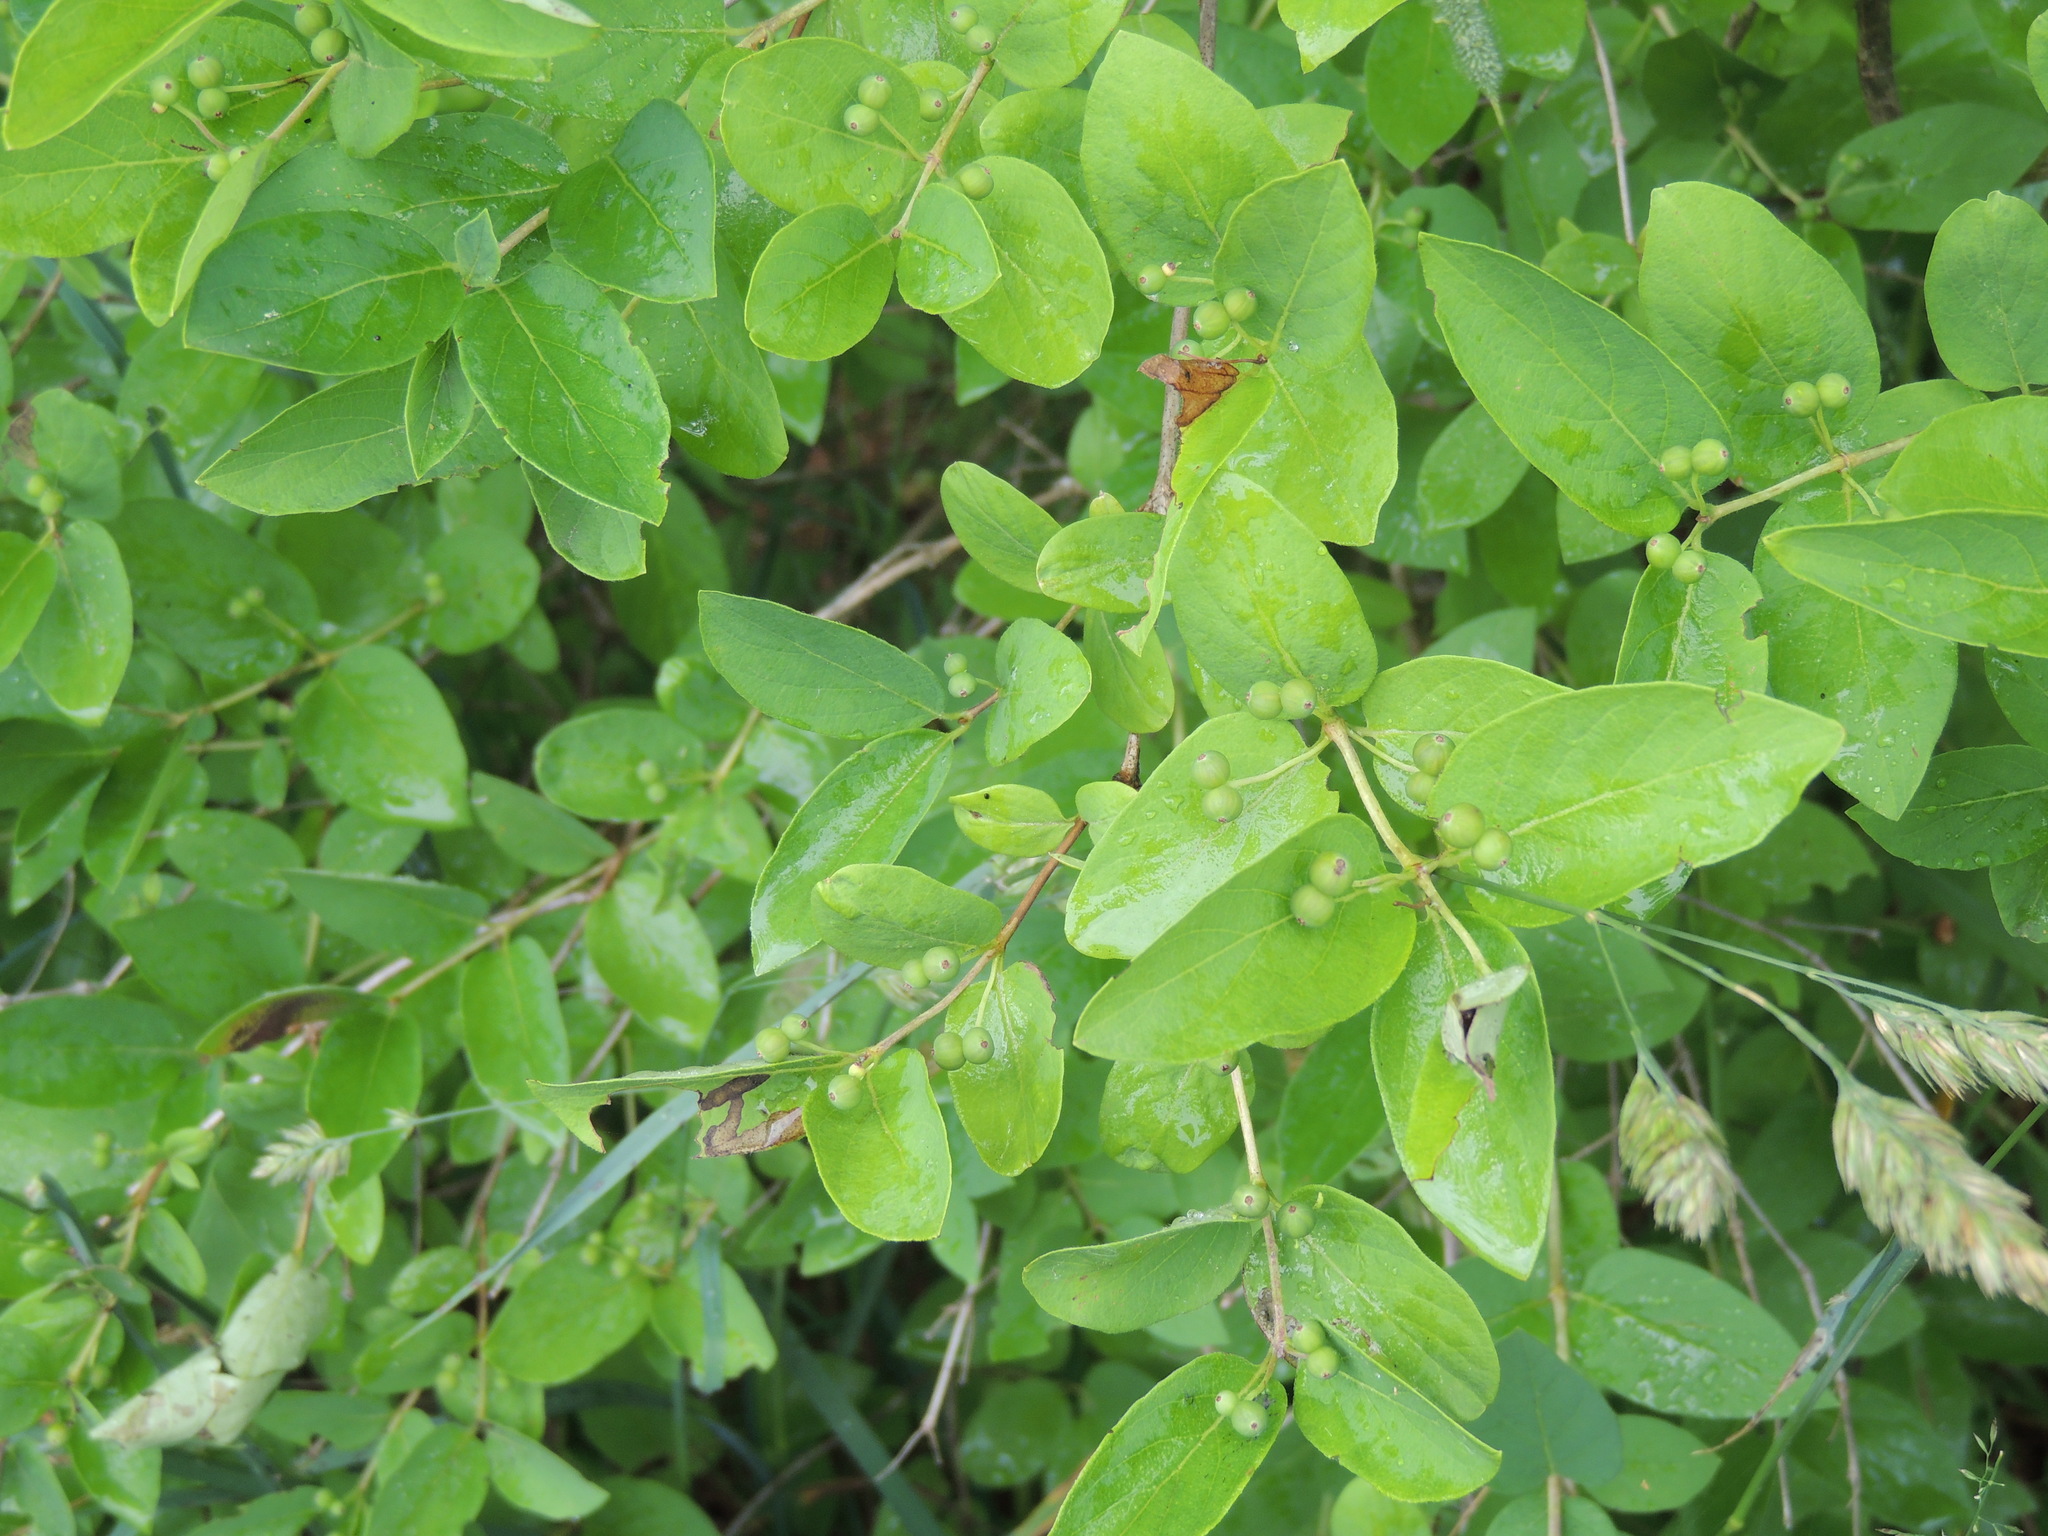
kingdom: Plantae
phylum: Tracheophyta
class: Magnoliopsida
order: Dipsacales
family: Caprifoliaceae
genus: Lonicera
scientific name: Lonicera bella
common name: Bell's honeysuckle
